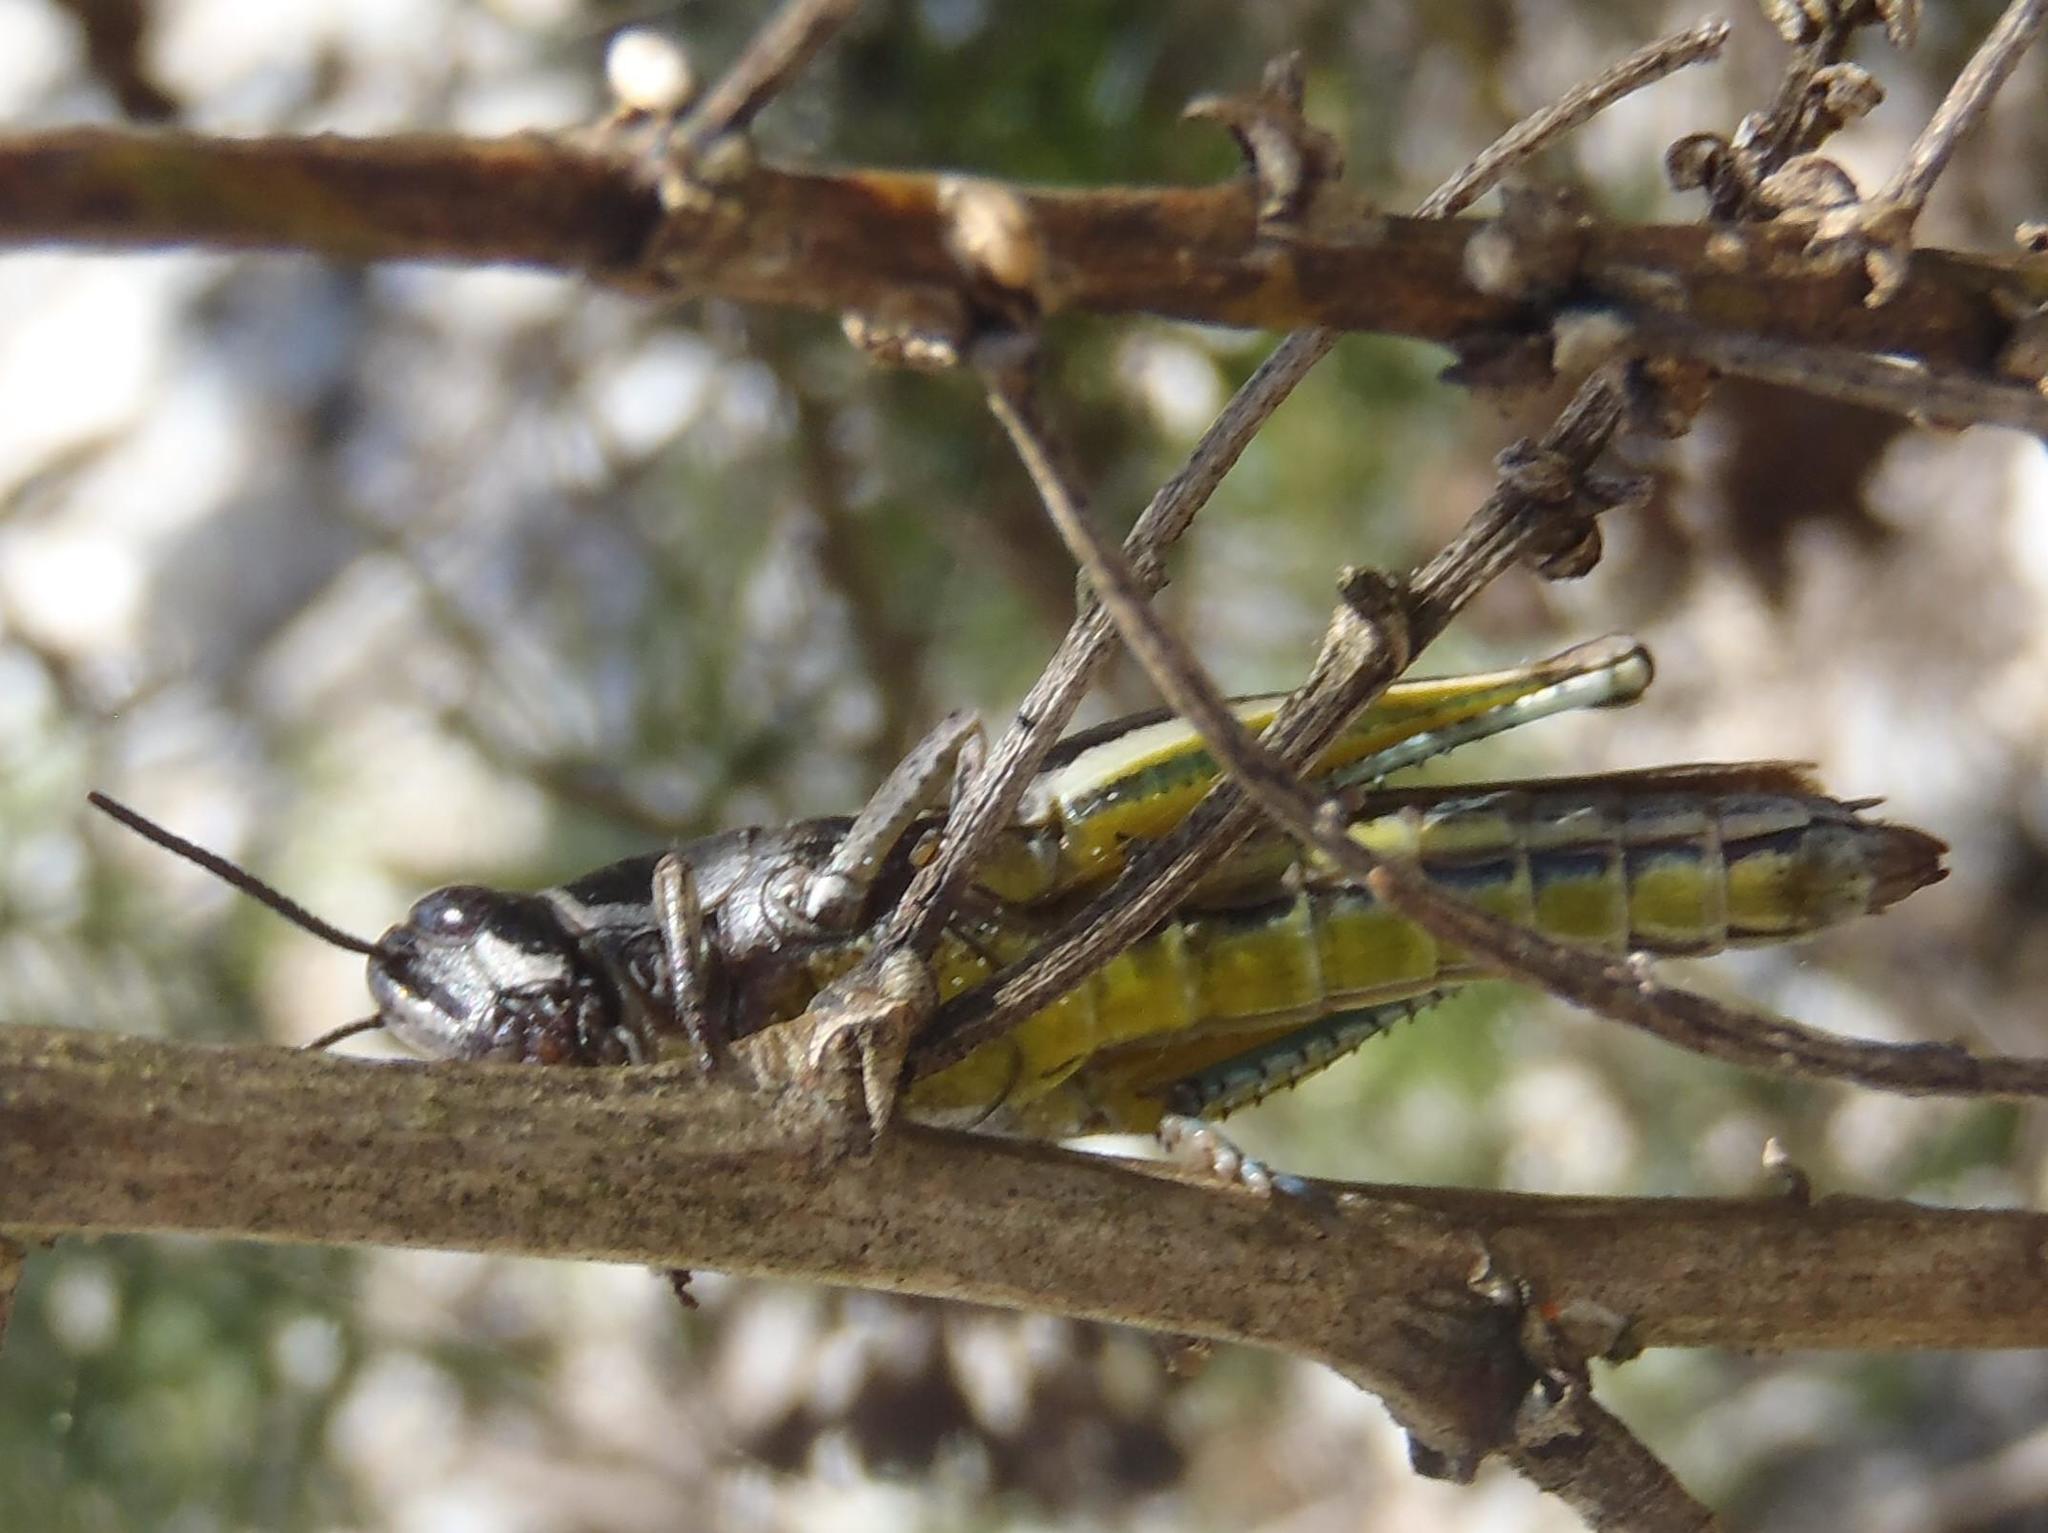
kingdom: Animalia
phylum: Arthropoda
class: Insecta
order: Orthoptera
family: Acrididae
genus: Vitticatantops
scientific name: Vitticatantops humeralis
